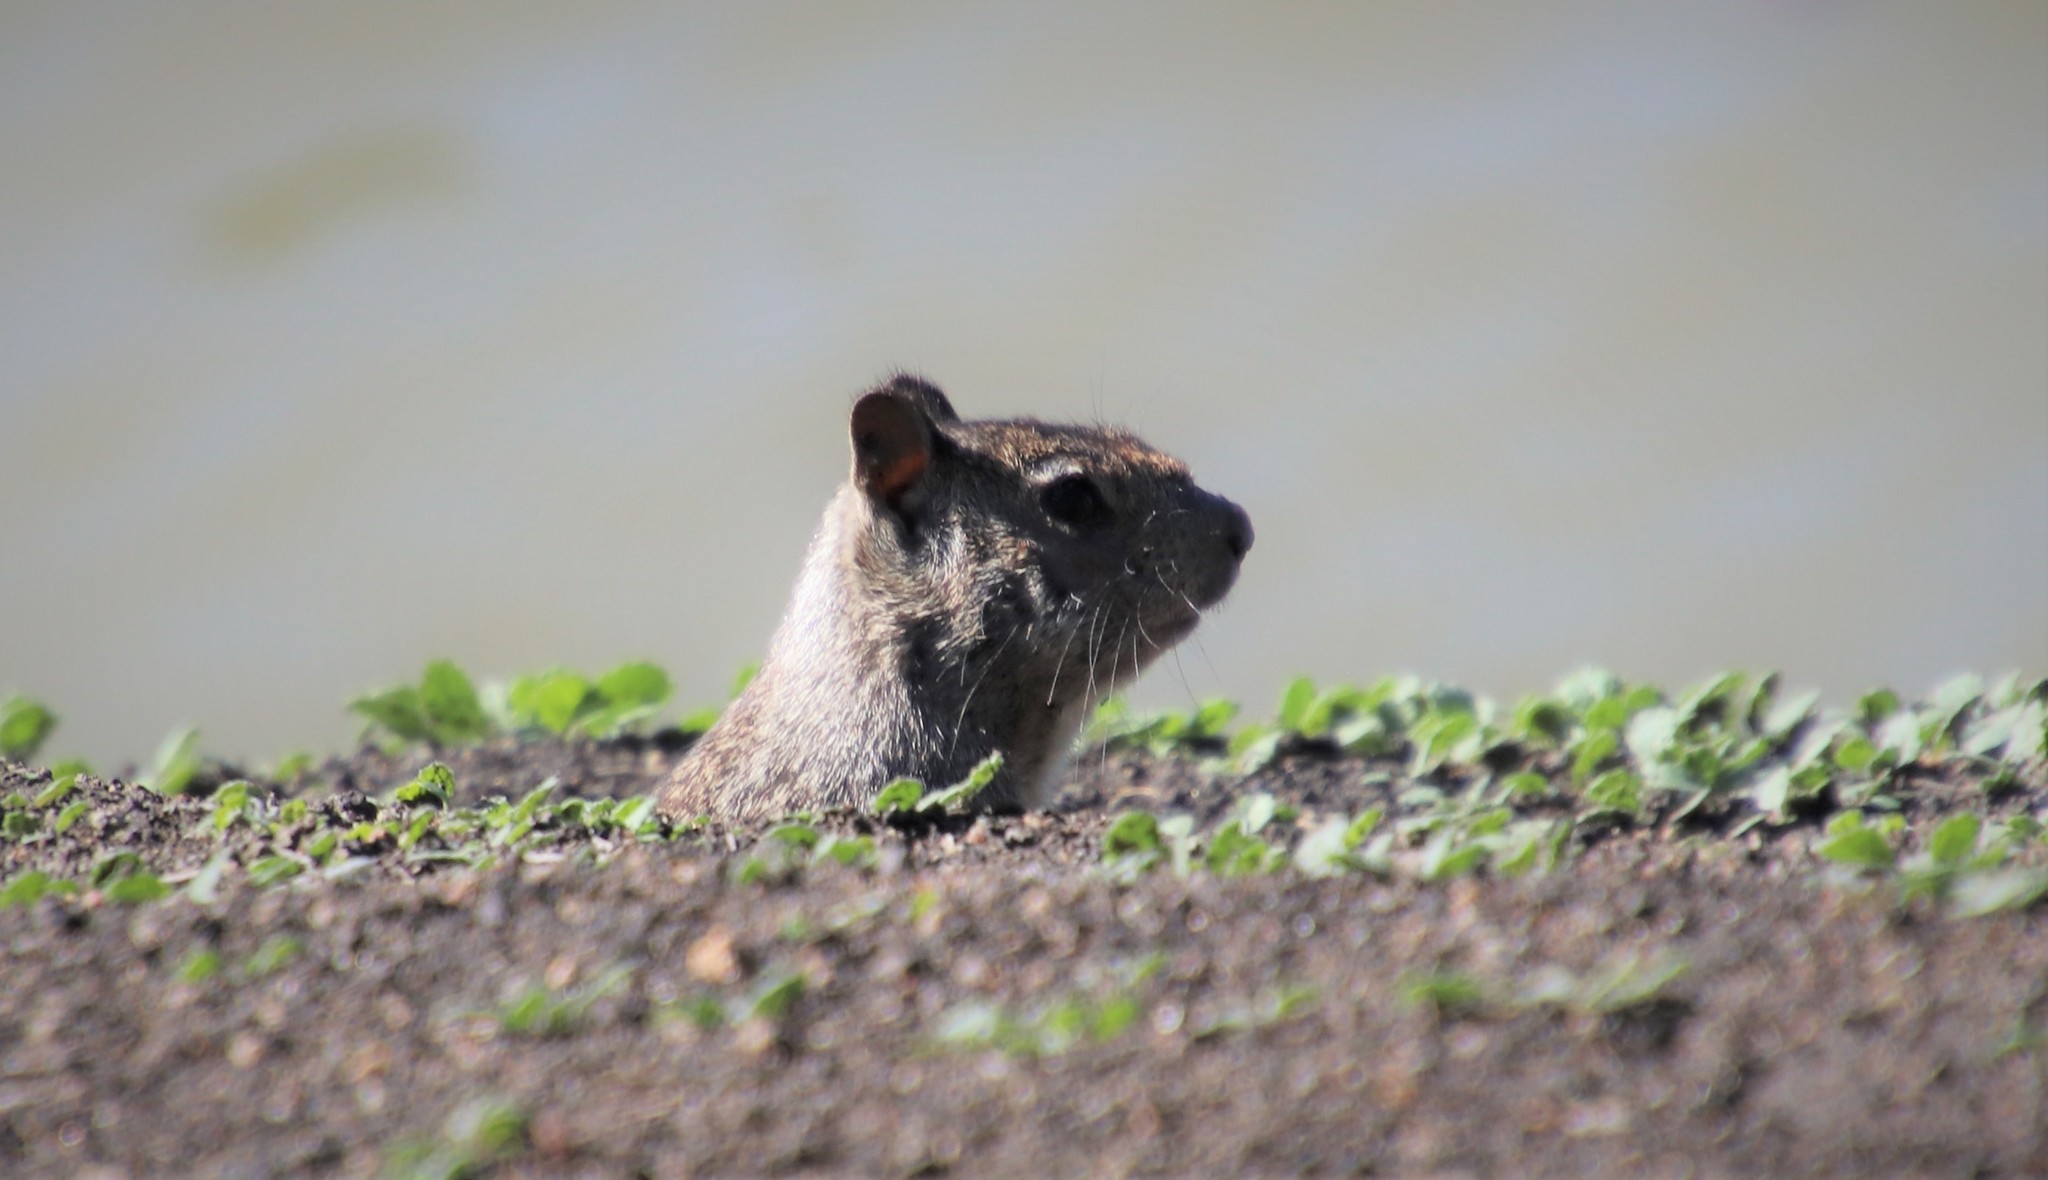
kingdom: Animalia
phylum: Chordata
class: Mammalia
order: Rodentia
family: Sciuridae
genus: Otospermophilus
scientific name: Otospermophilus beecheyi
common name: California ground squirrel
